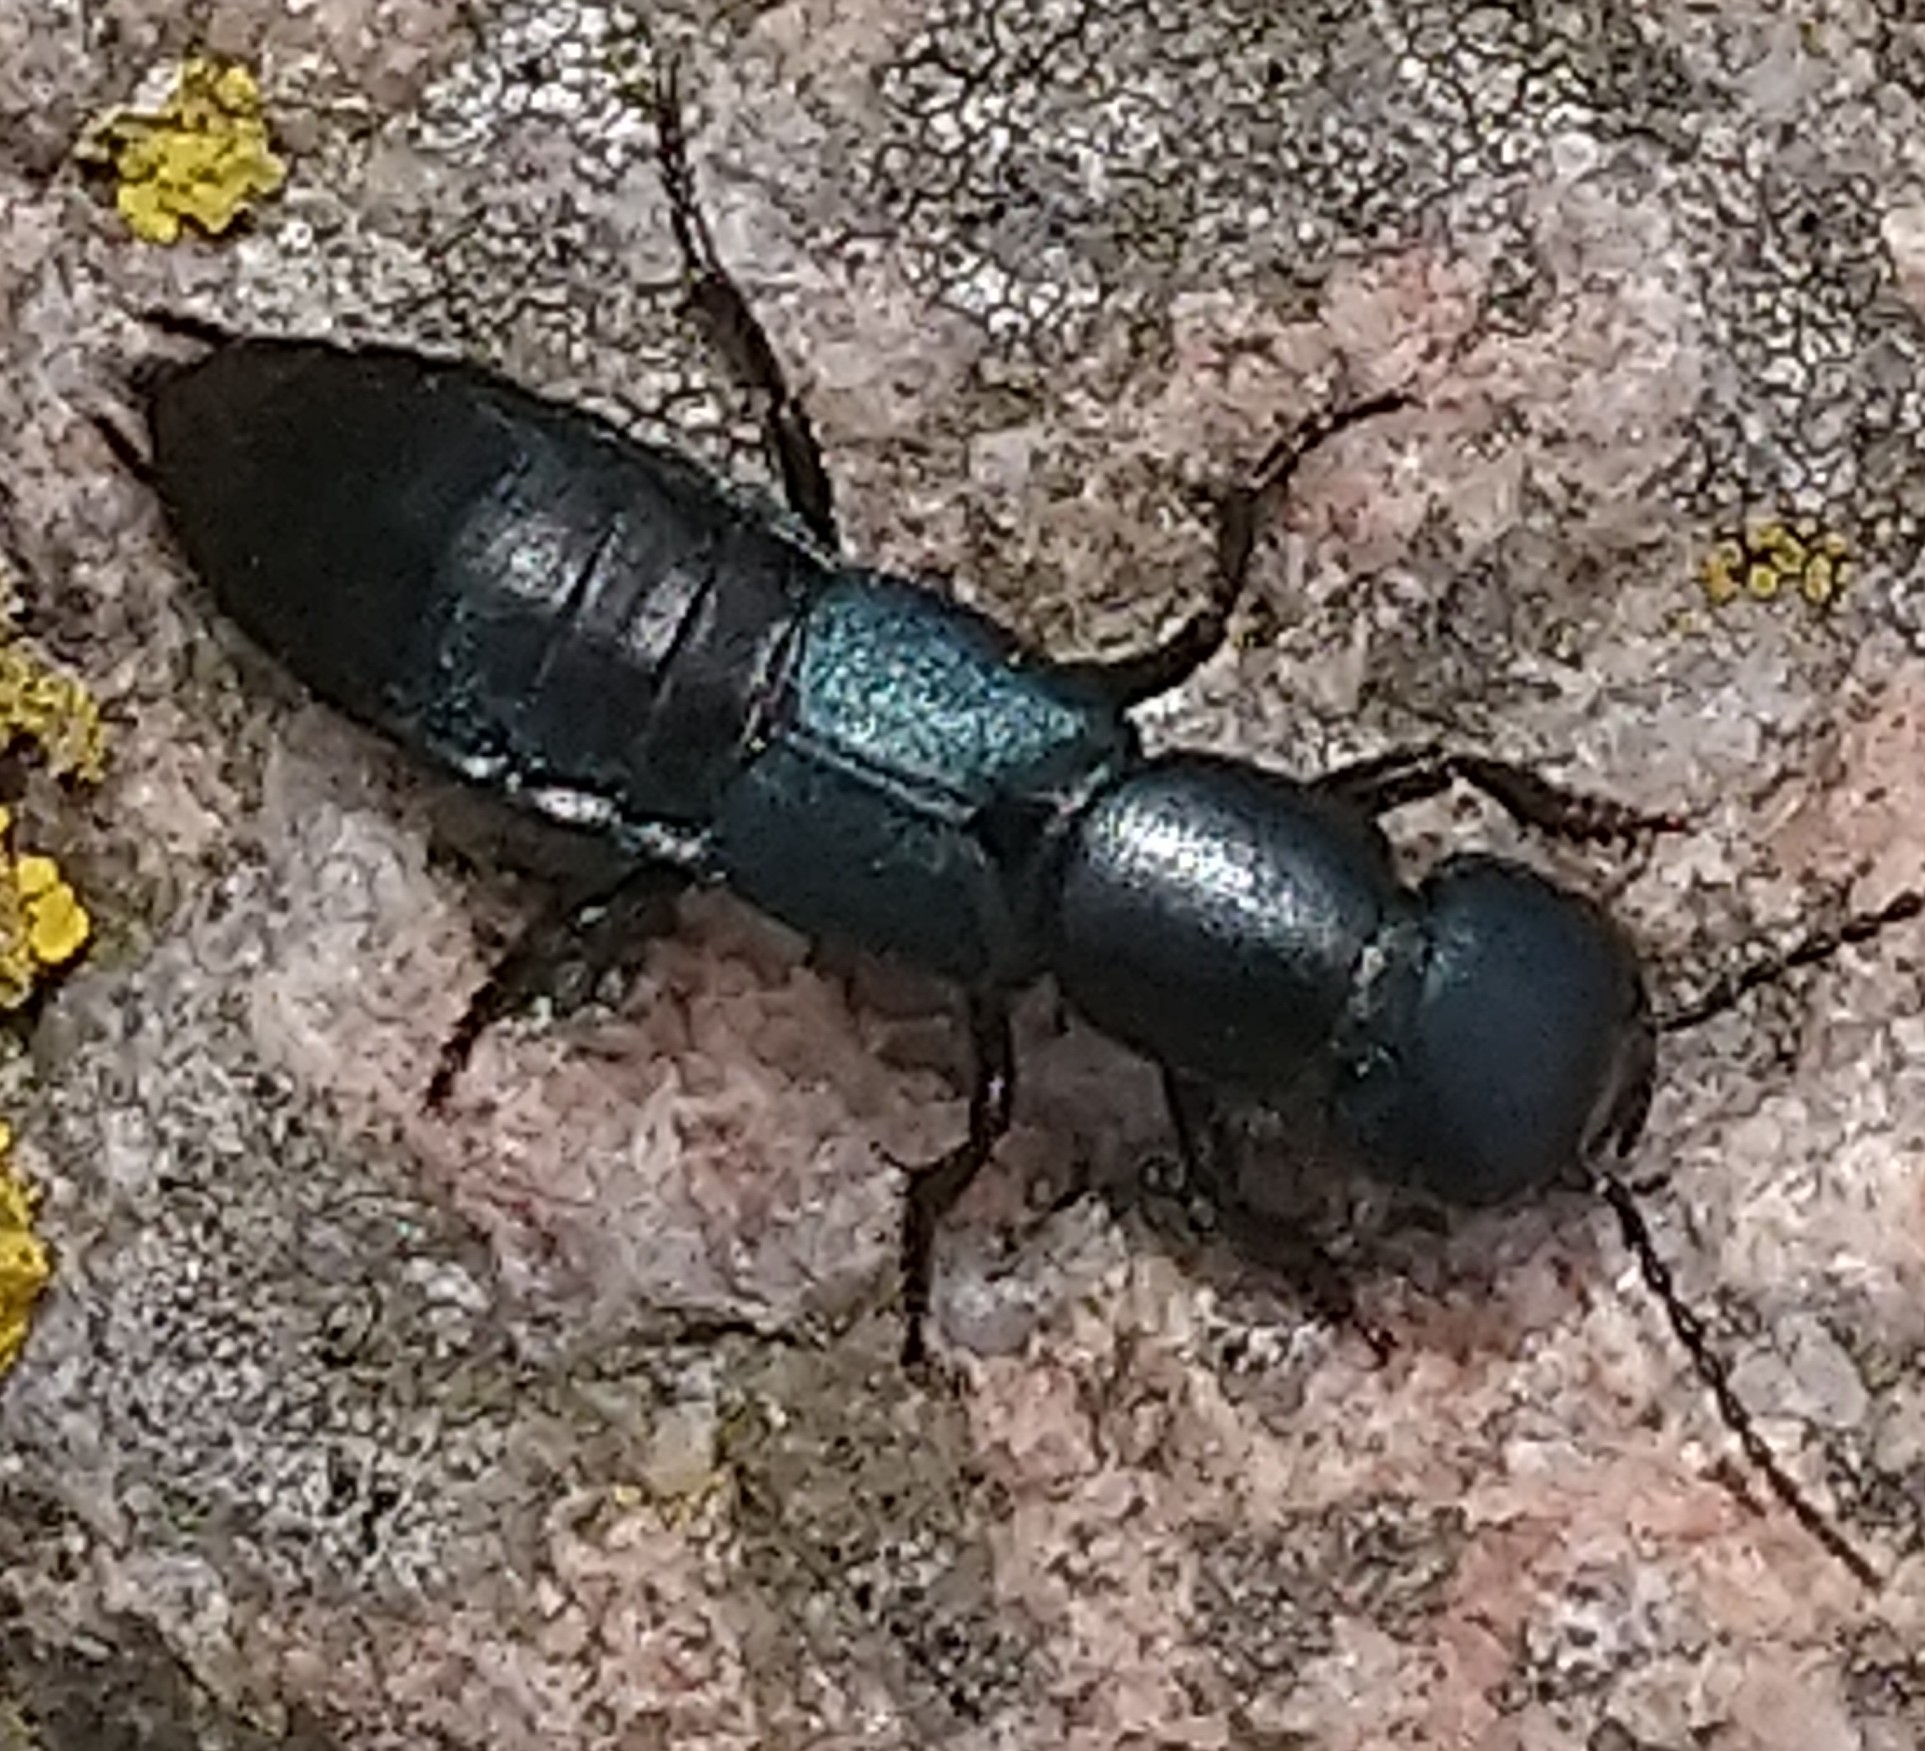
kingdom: Animalia
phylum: Arthropoda
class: Insecta
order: Coleoptera
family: Staphylinidae
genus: Ocypus
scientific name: Ocypus ophthalmicus
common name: Blue rove-beetle
